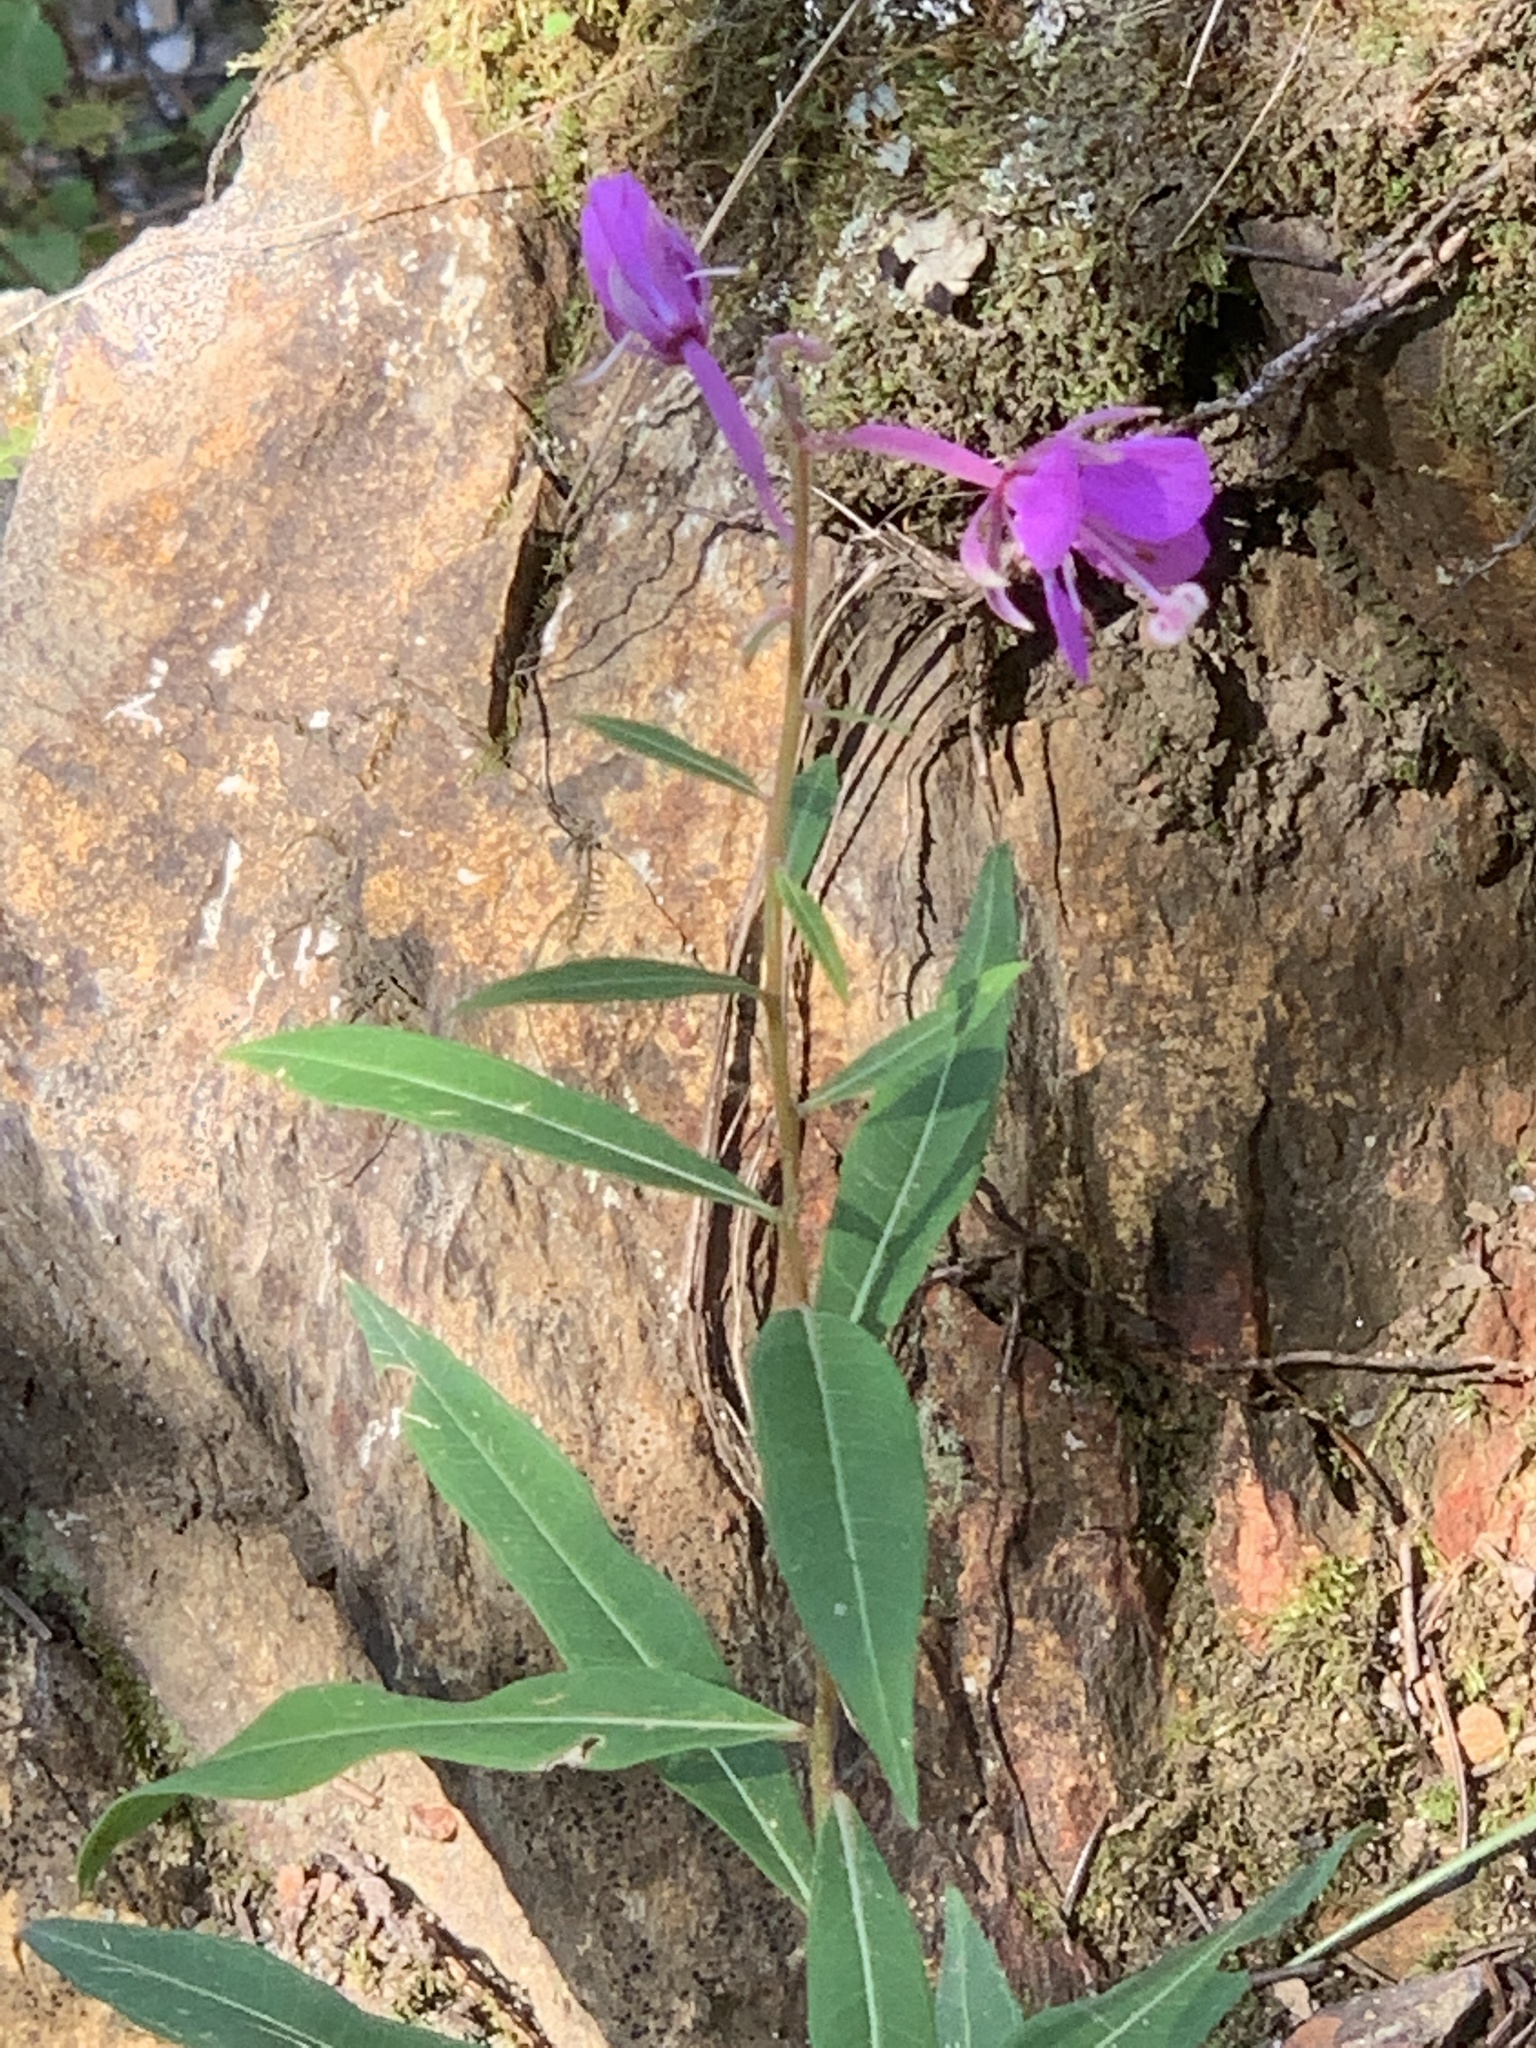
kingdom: Plantae
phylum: Tracheophyta
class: Magnoliopsida
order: Myrtales
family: Onagraceae
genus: Chamaenerion
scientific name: Chamaenerion angustifolium
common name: Fireweed
